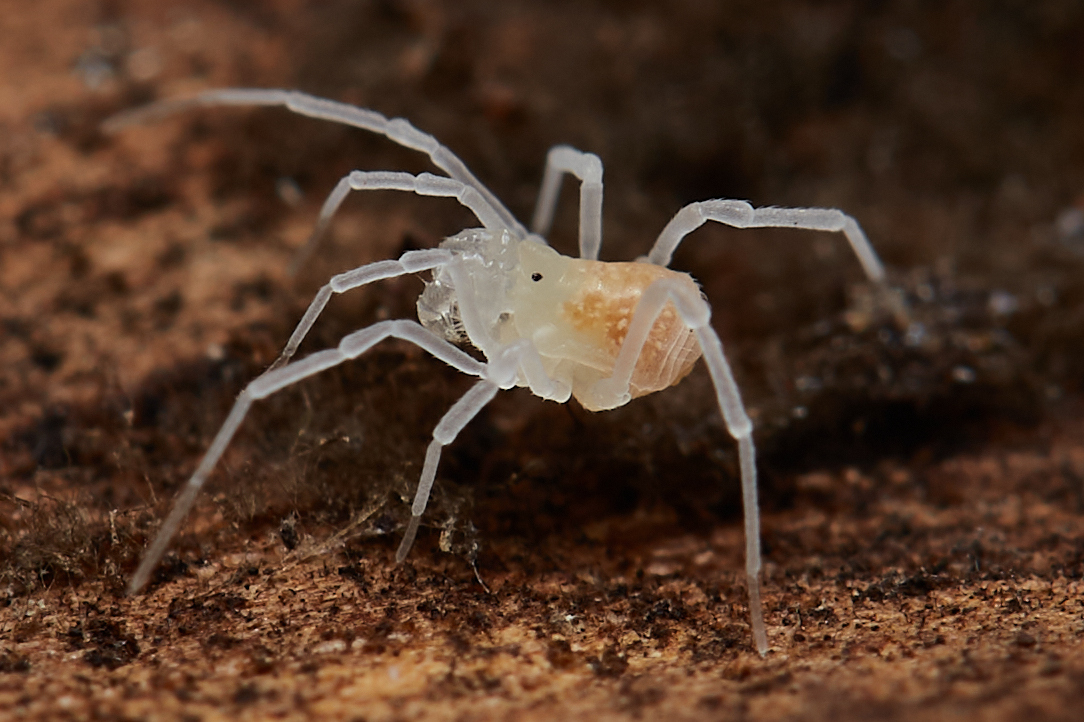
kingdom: Animalia
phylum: Arthropoda
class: Arachnida
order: Opiliones
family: Phalangodidae
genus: Sitalcina
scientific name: Sitalcina californica
